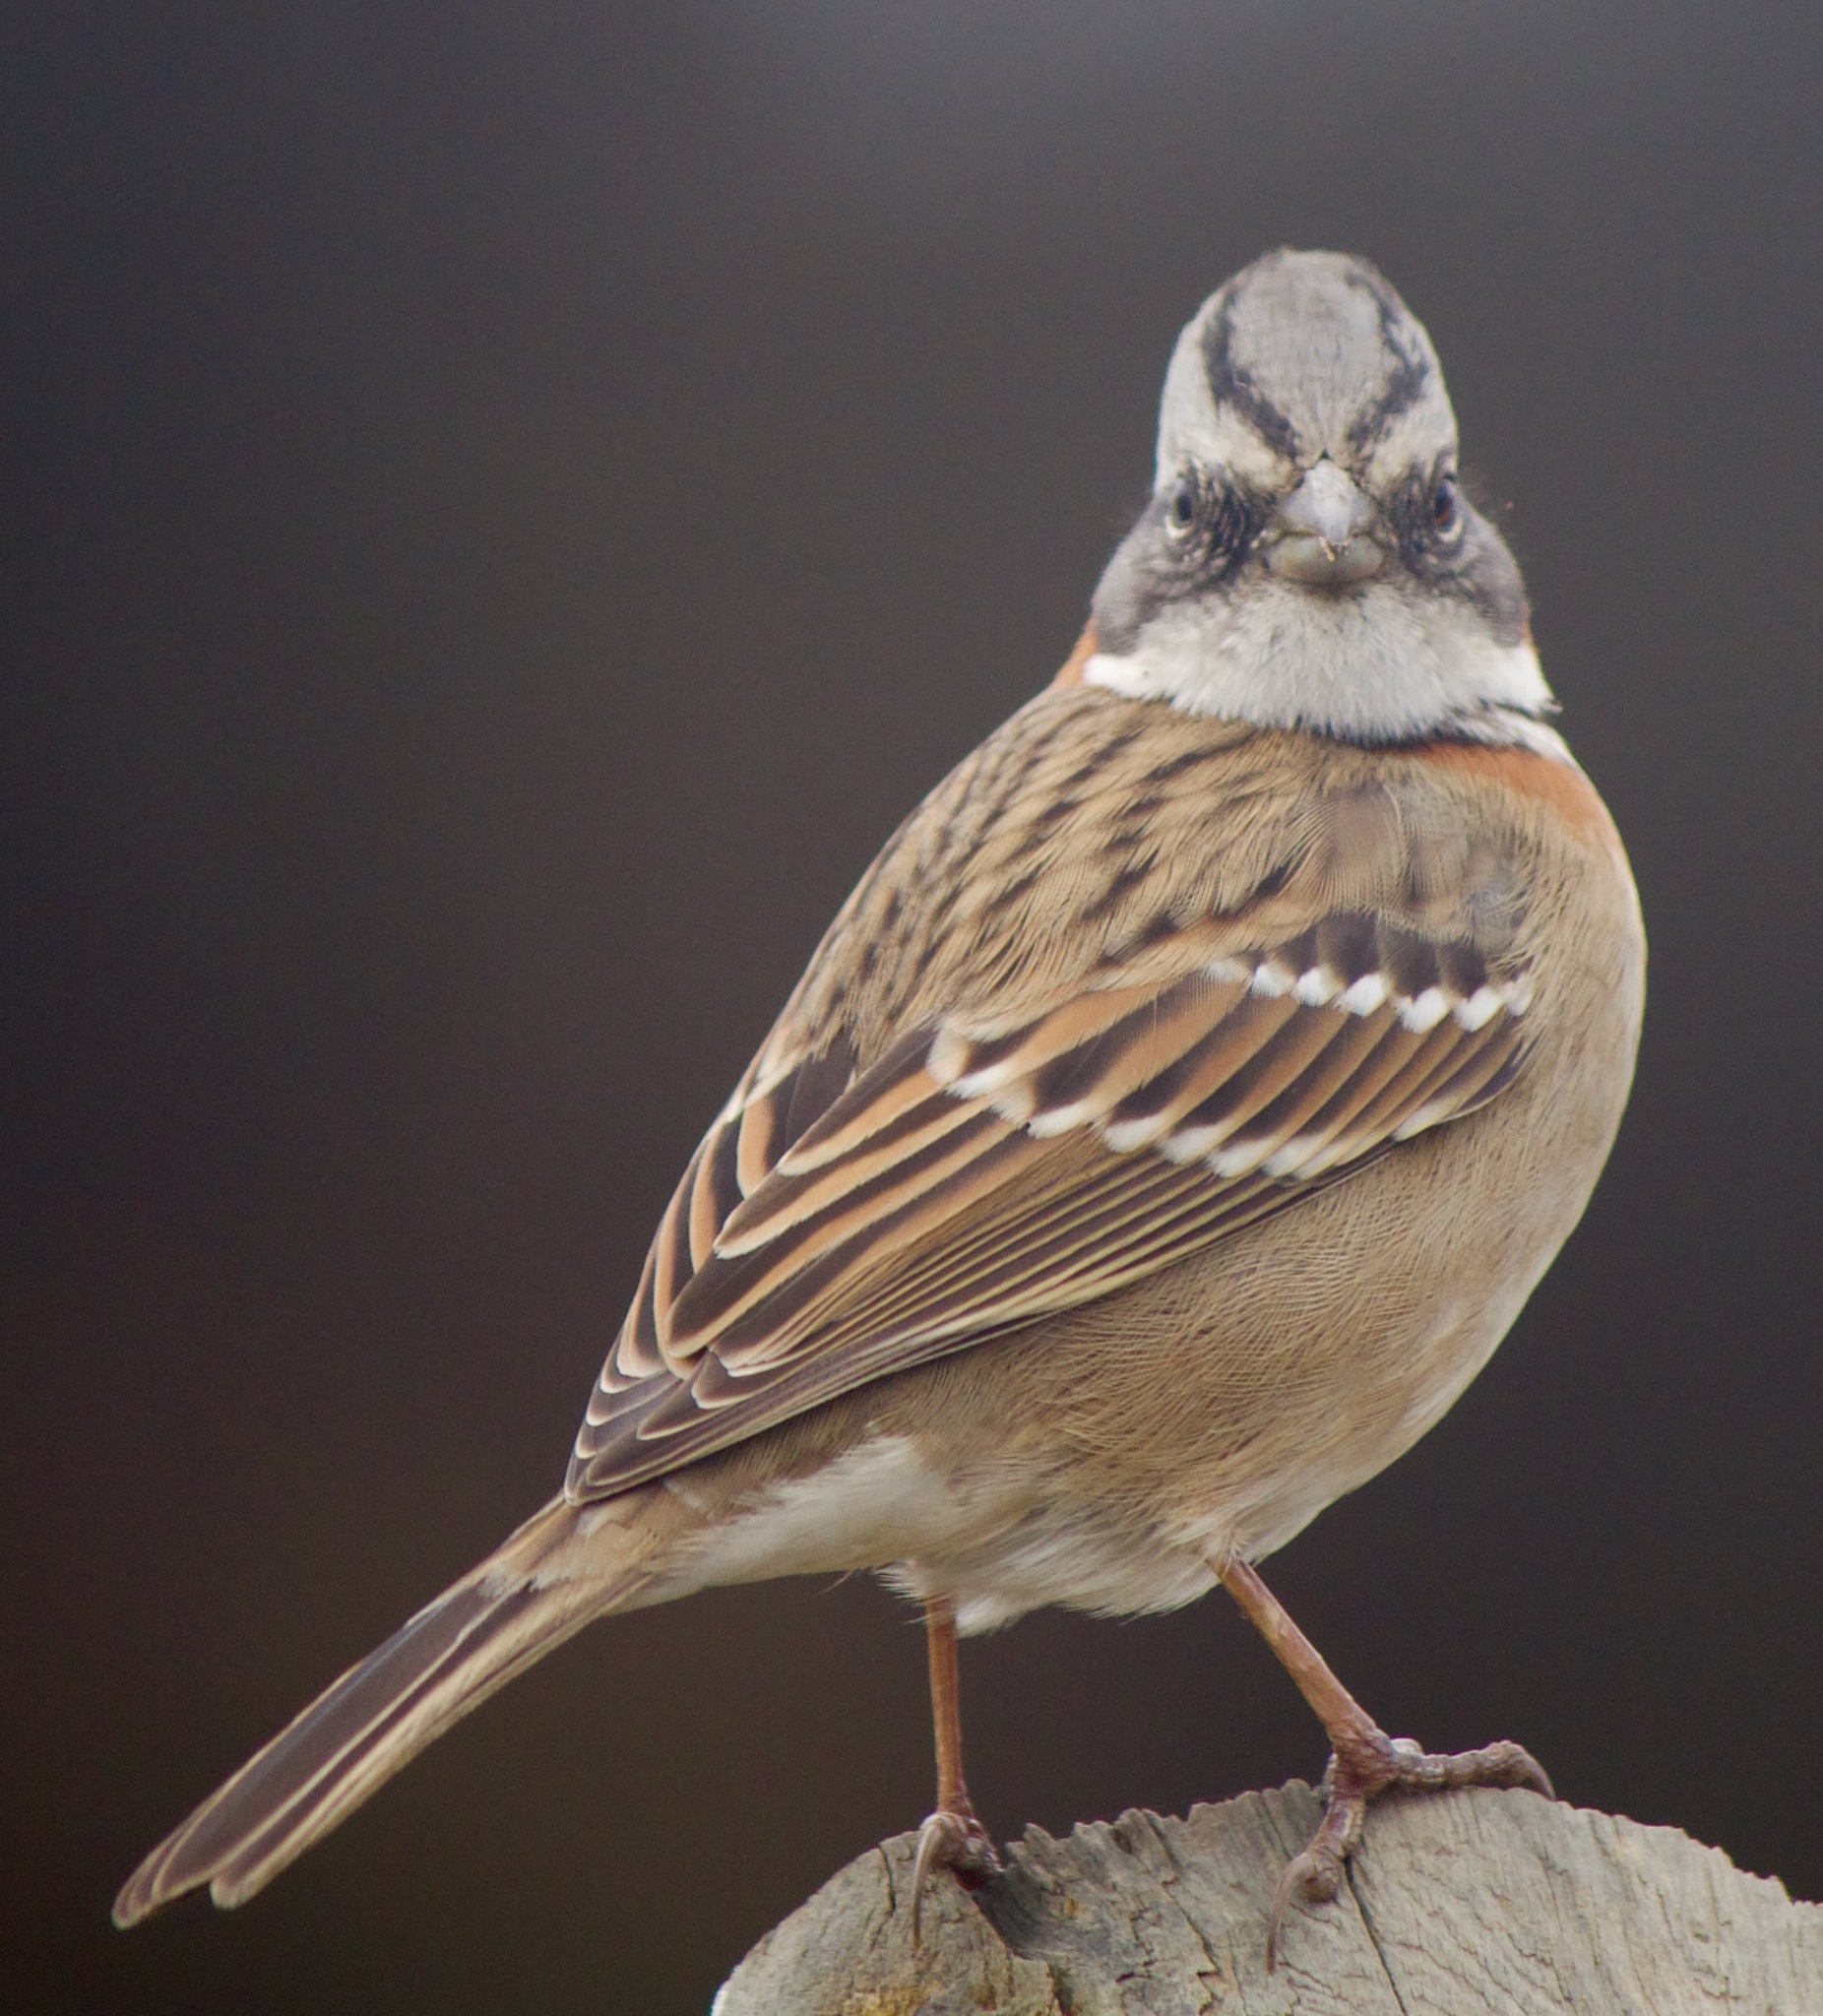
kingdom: Animalia
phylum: Chordata
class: Aves
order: Passeriformes
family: Passerellidae
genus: Zonotrichia
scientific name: Zonotrichia capensis
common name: Rufous-collared sparrow
